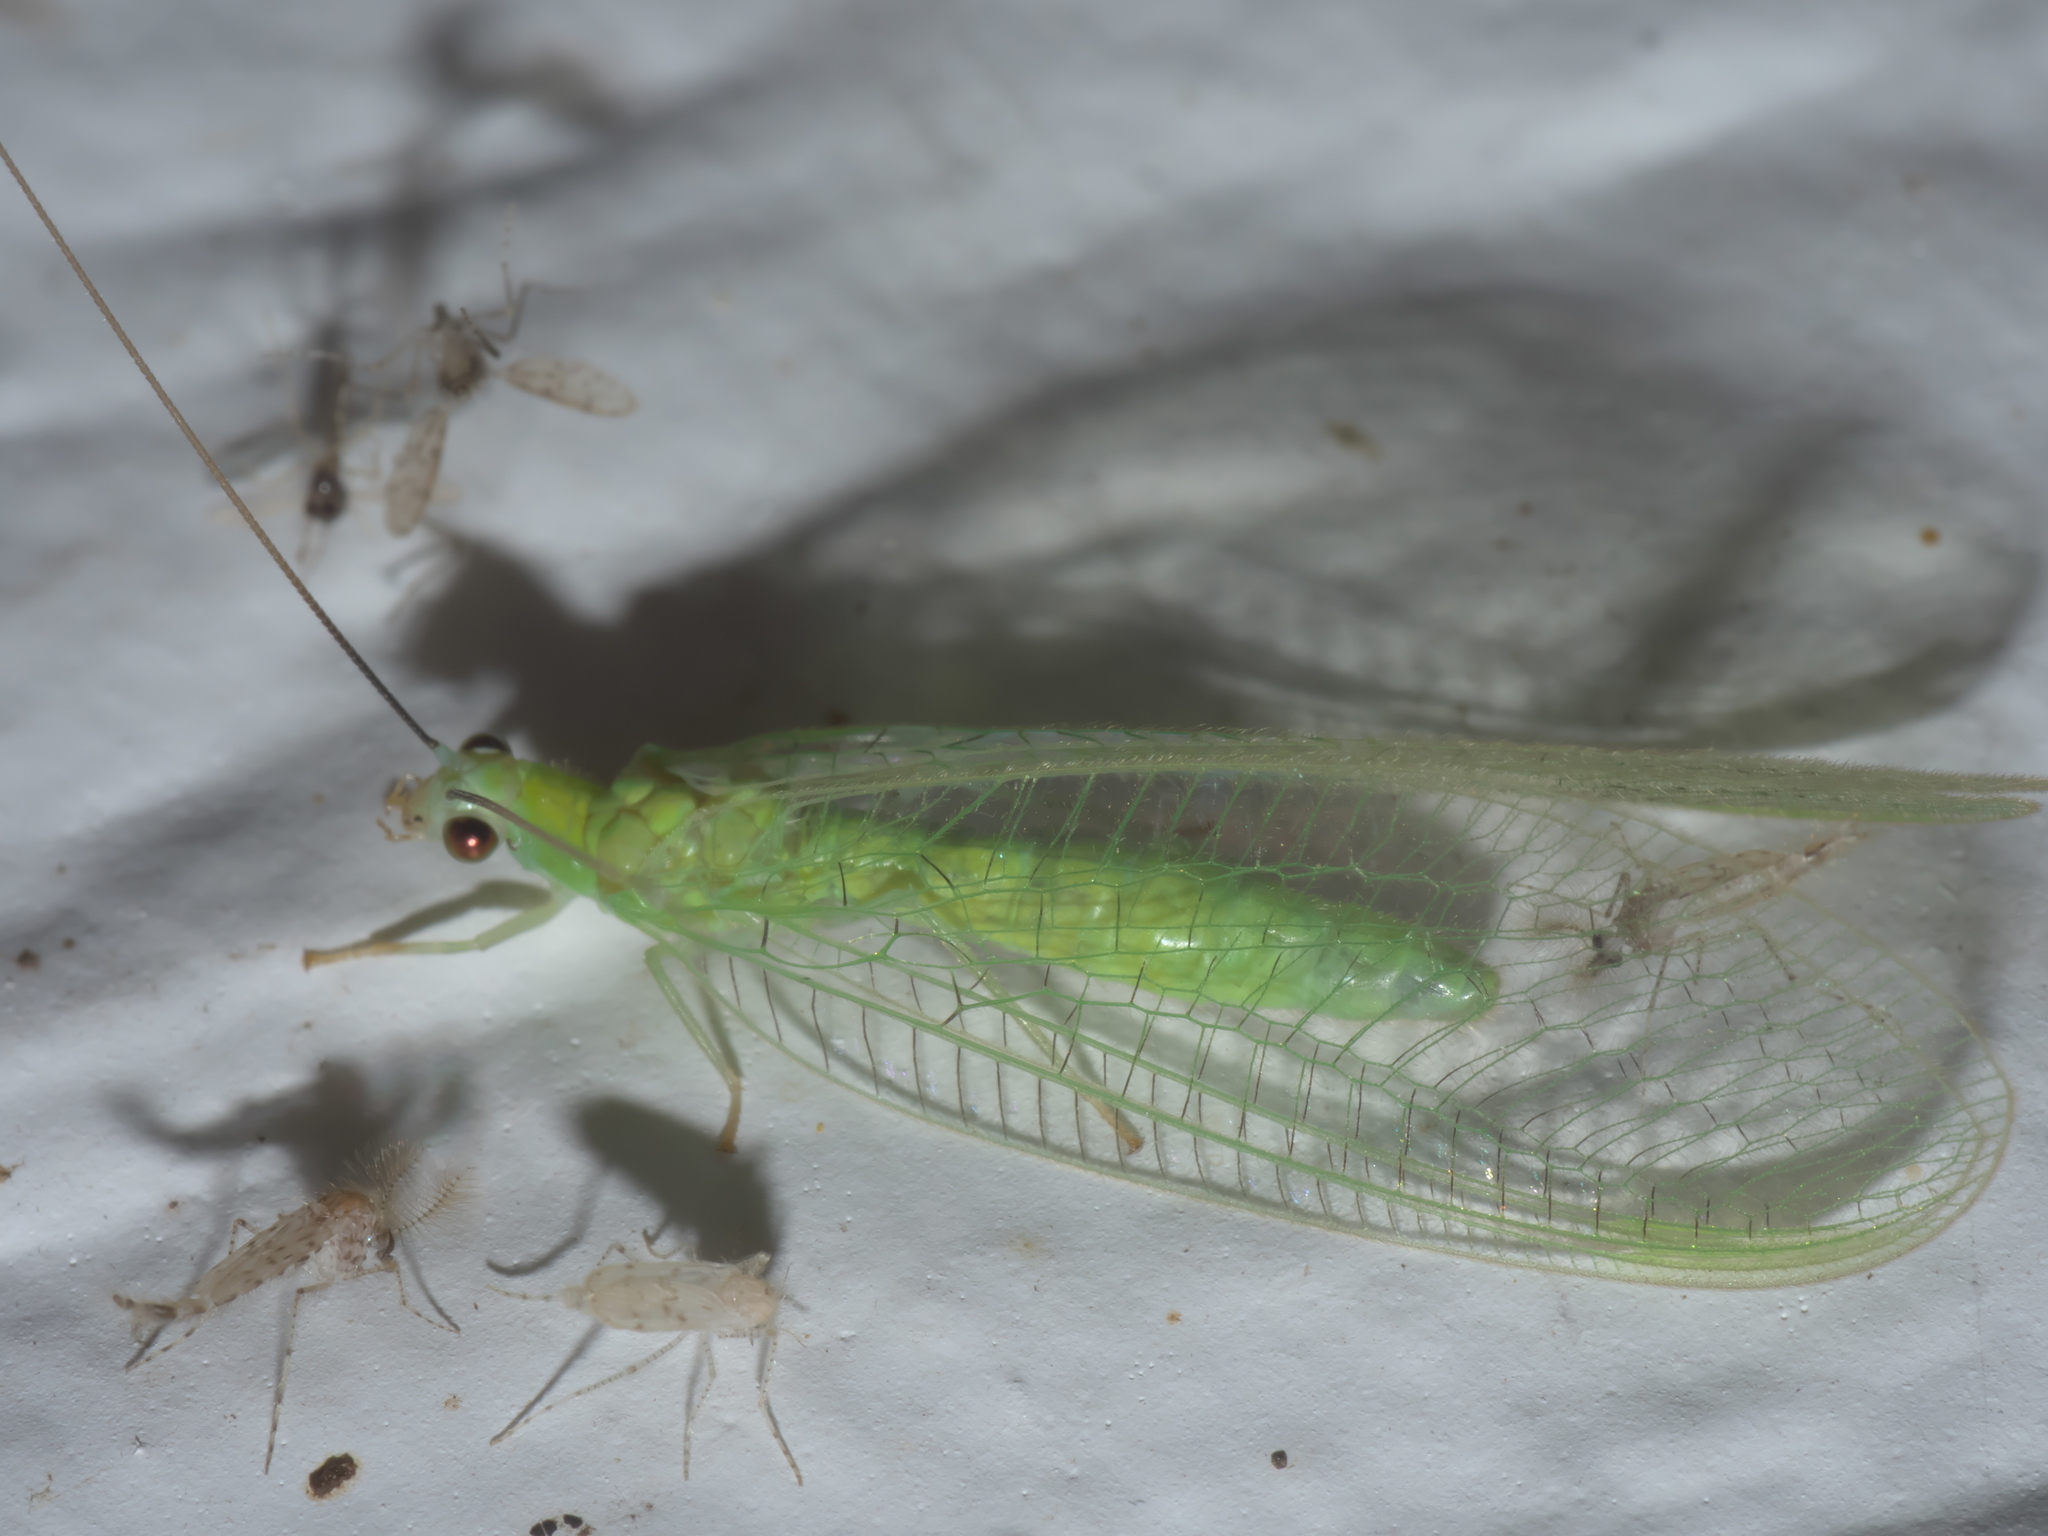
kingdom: Animalia
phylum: Arthropoda
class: Insecta
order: Neuroptera
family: Chrysopidae
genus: Chrysopa
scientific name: Chrysopa nigricornis
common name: Black-horned green lacewing
